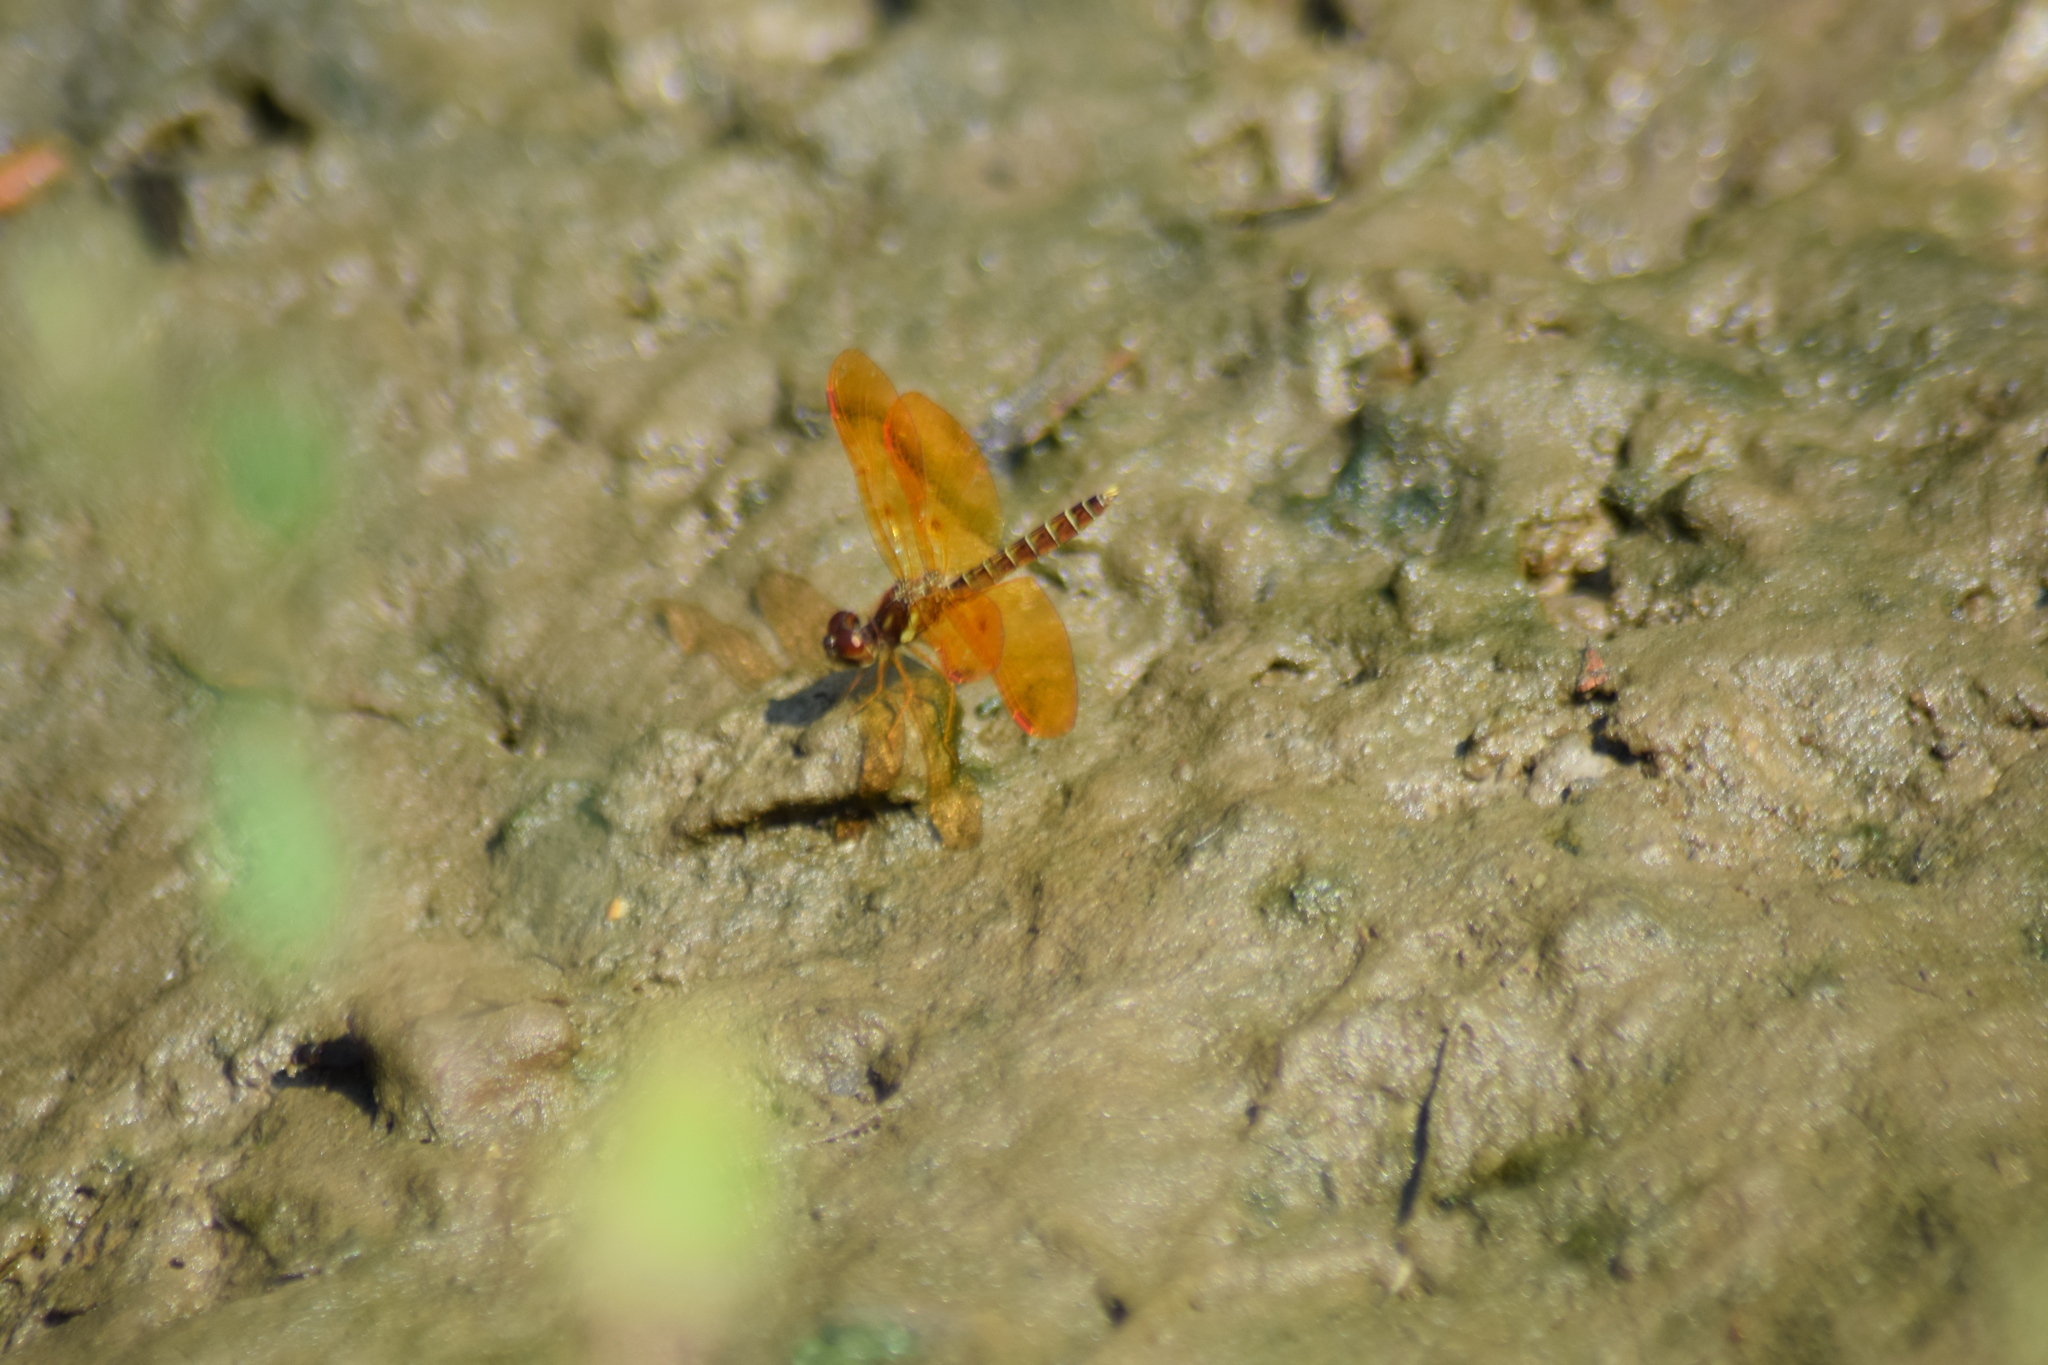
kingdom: Animalia
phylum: Arthropoda
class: Insecta
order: Odonata
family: Libellulidae
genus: Perithemis
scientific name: Perithemis tenera
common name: Eastern amberwing
